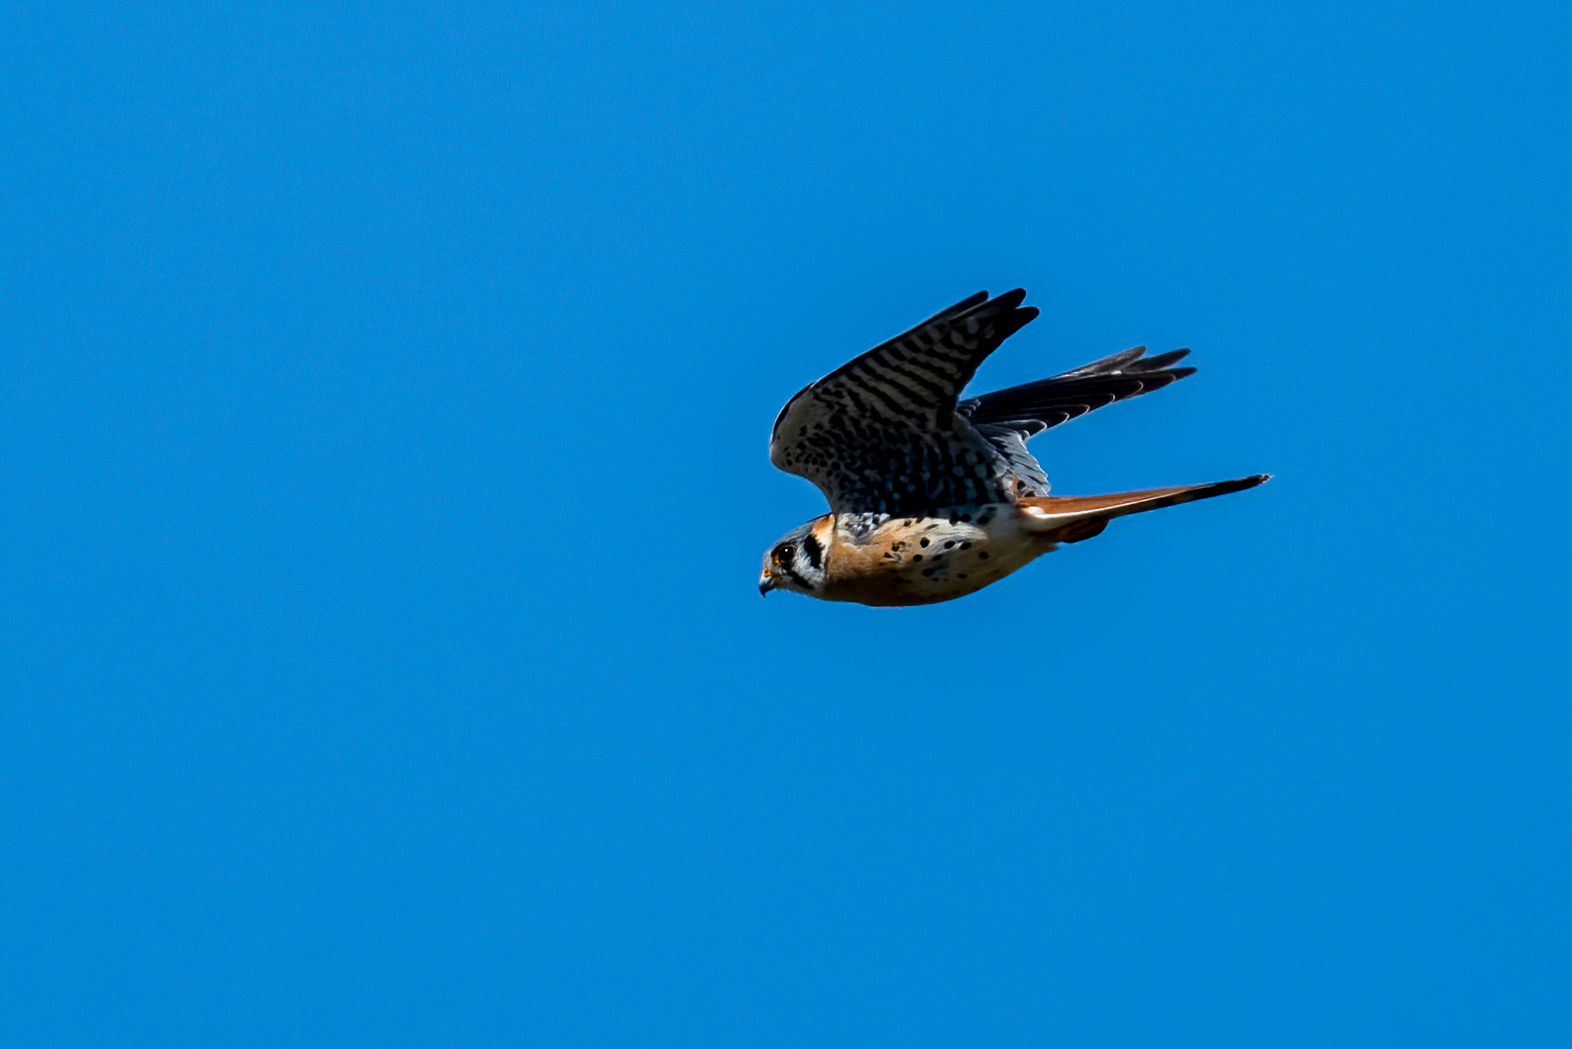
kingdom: Animalia
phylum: Chordata
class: Aves
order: Falconiformes
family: Falconidae
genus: Falco
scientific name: Falco sparverius
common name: American kestrel
